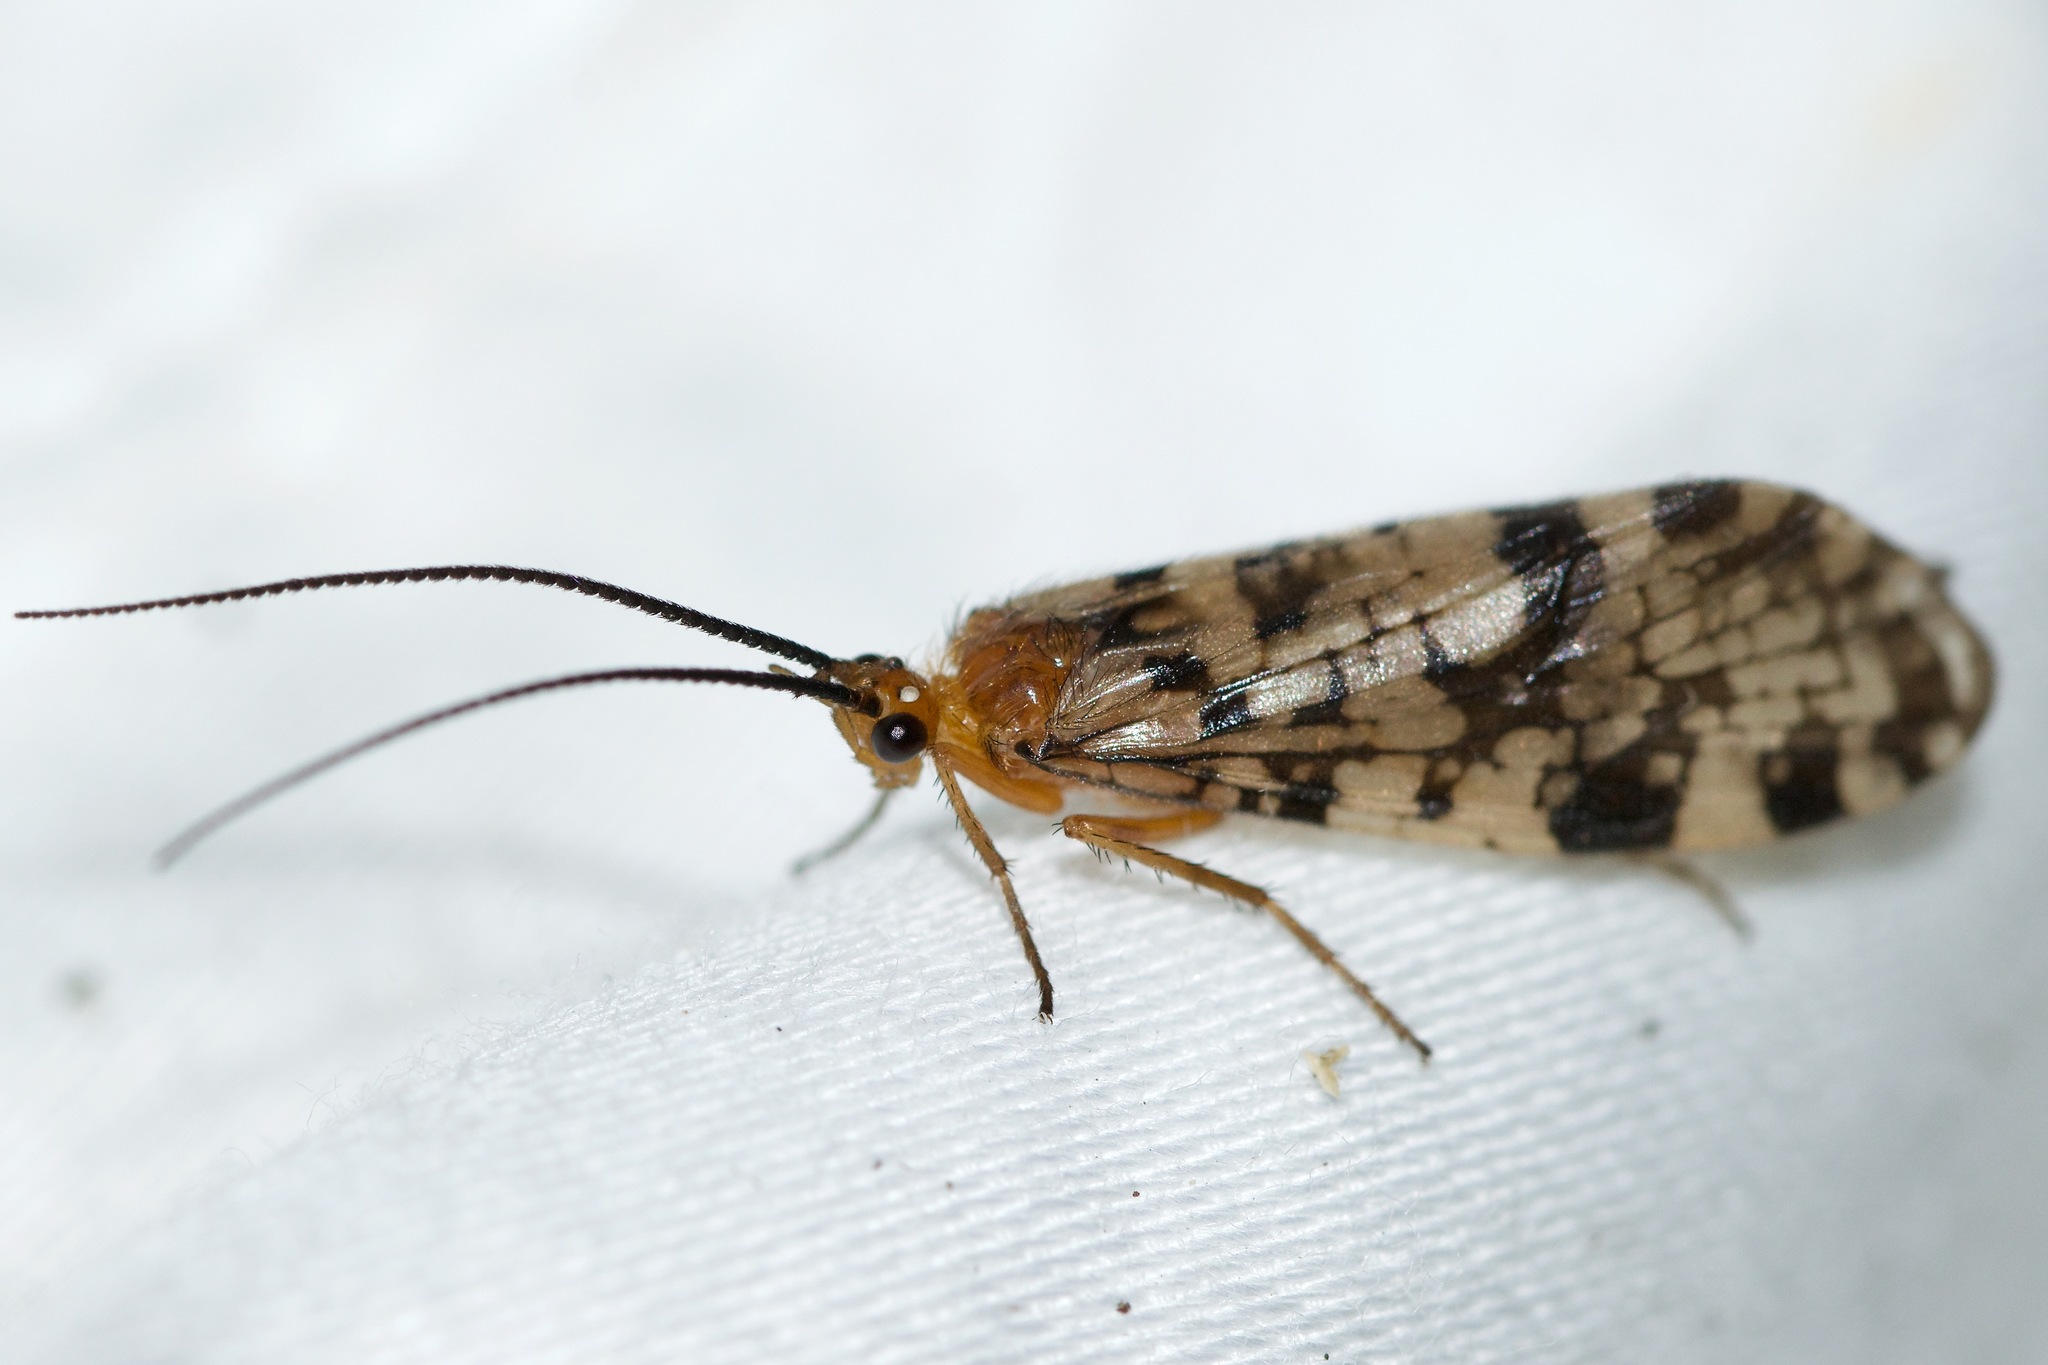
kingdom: Animalia
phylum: Arthropoda
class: Insecta
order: Trichoptera
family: Phryganeidae
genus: Banksiola
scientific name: Banksiola dossuaria
